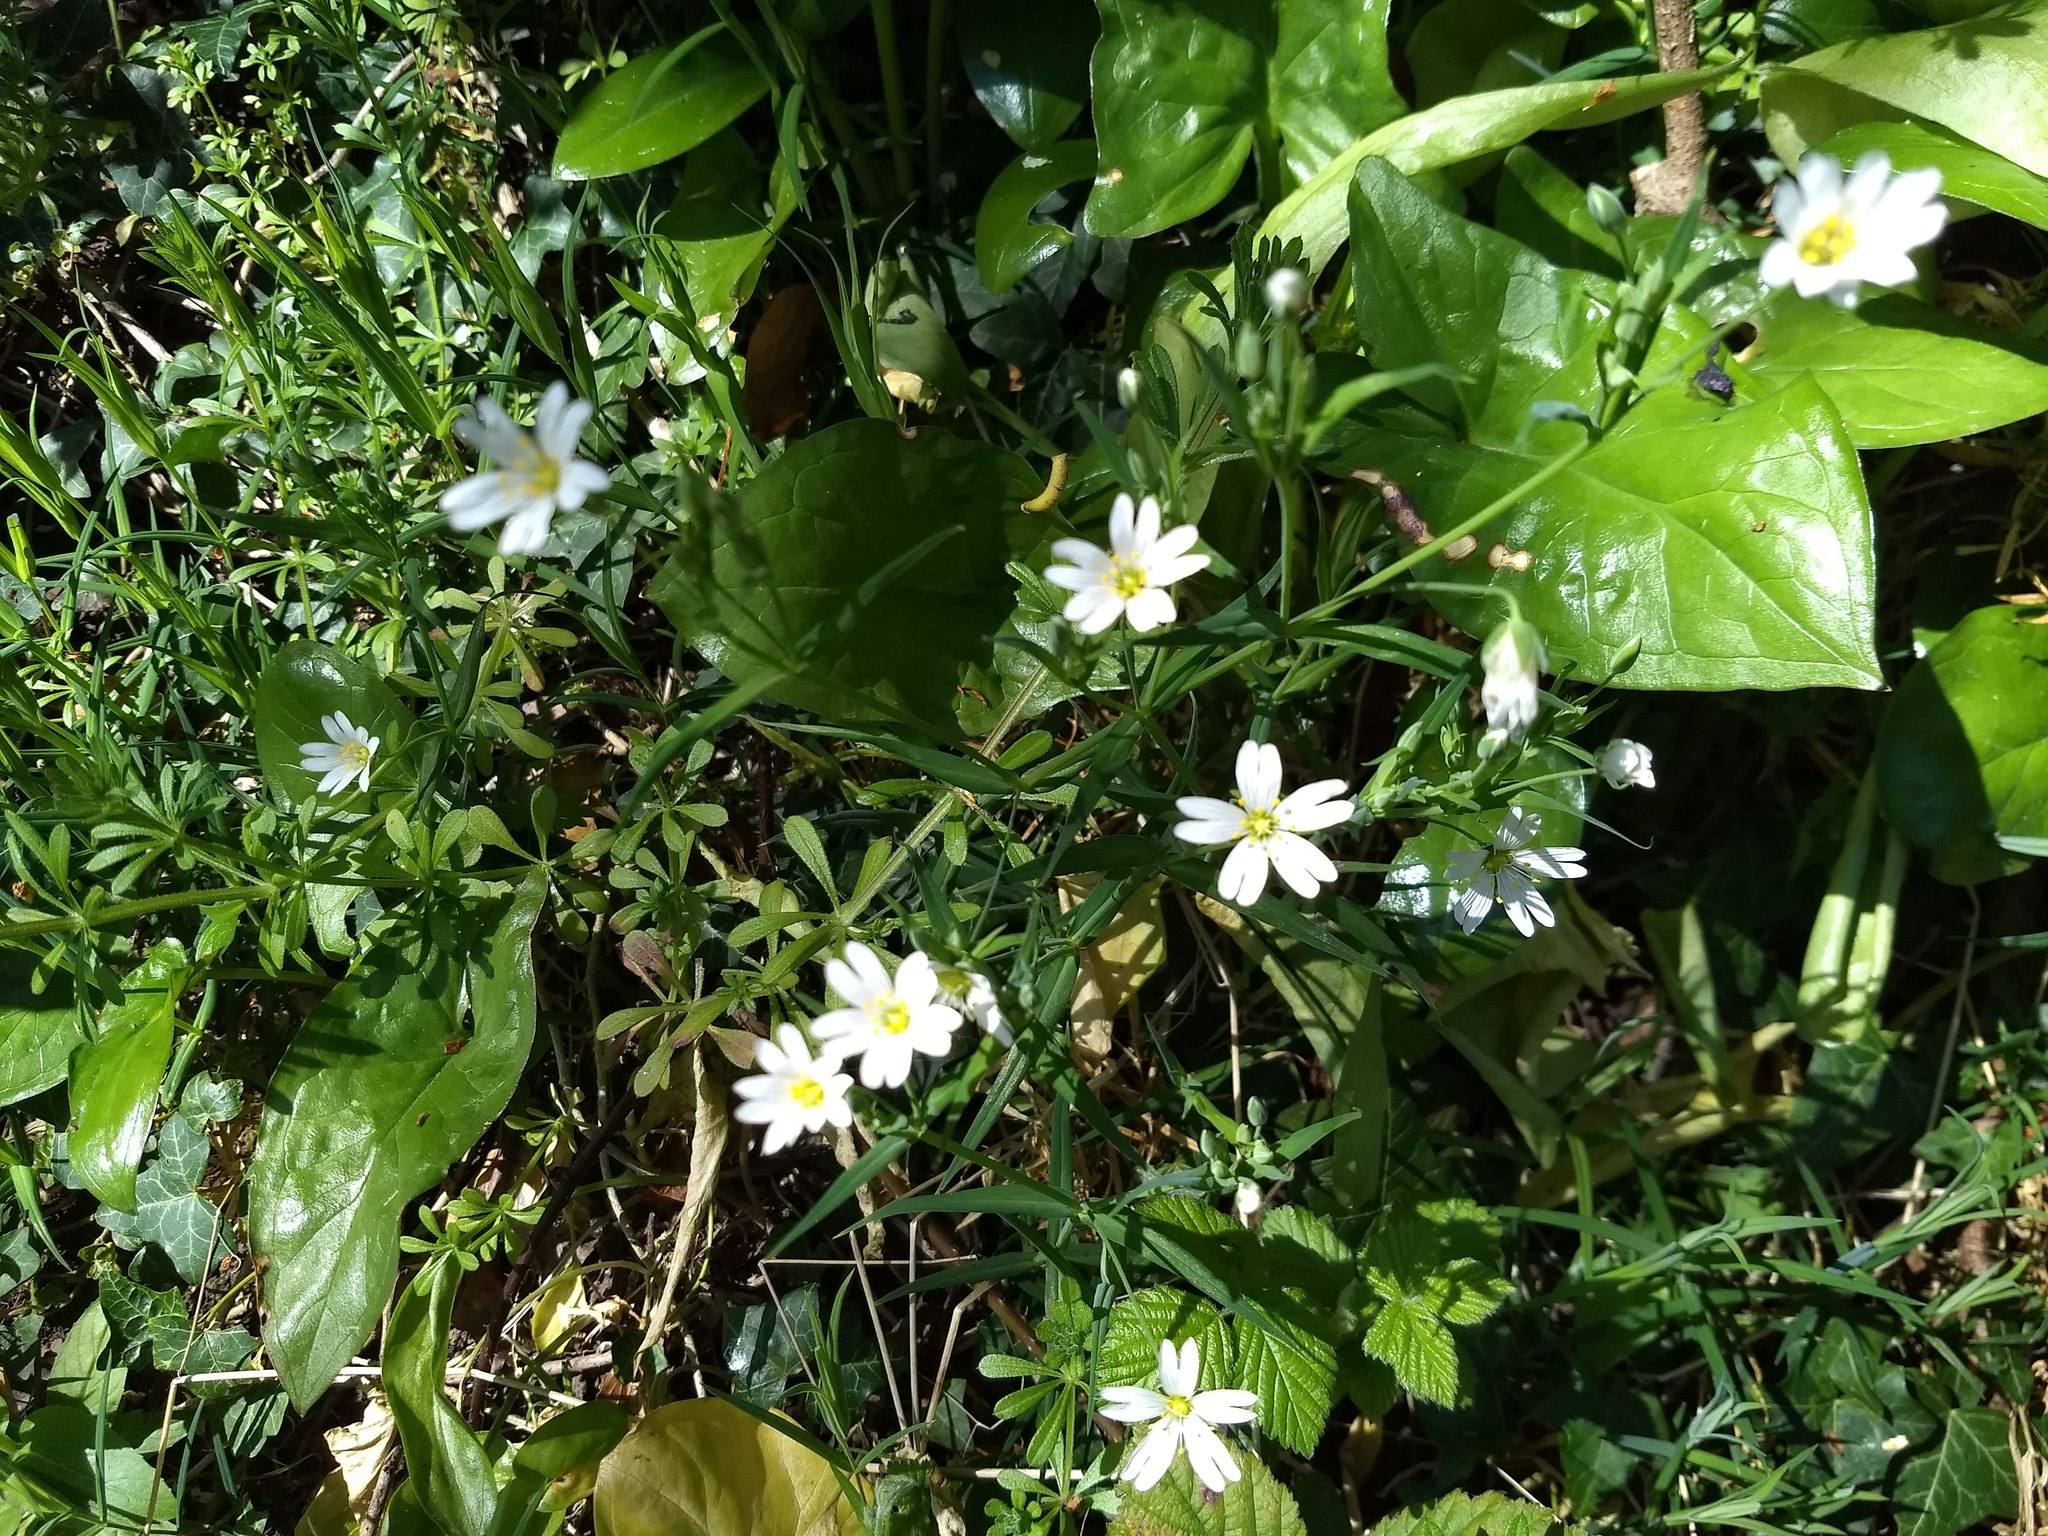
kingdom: Plantae
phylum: Tracheophyta
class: Magnoliopsida
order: Caryophyllales
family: Caryophyllaceae
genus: Rabelera
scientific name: Rabelera holostea
